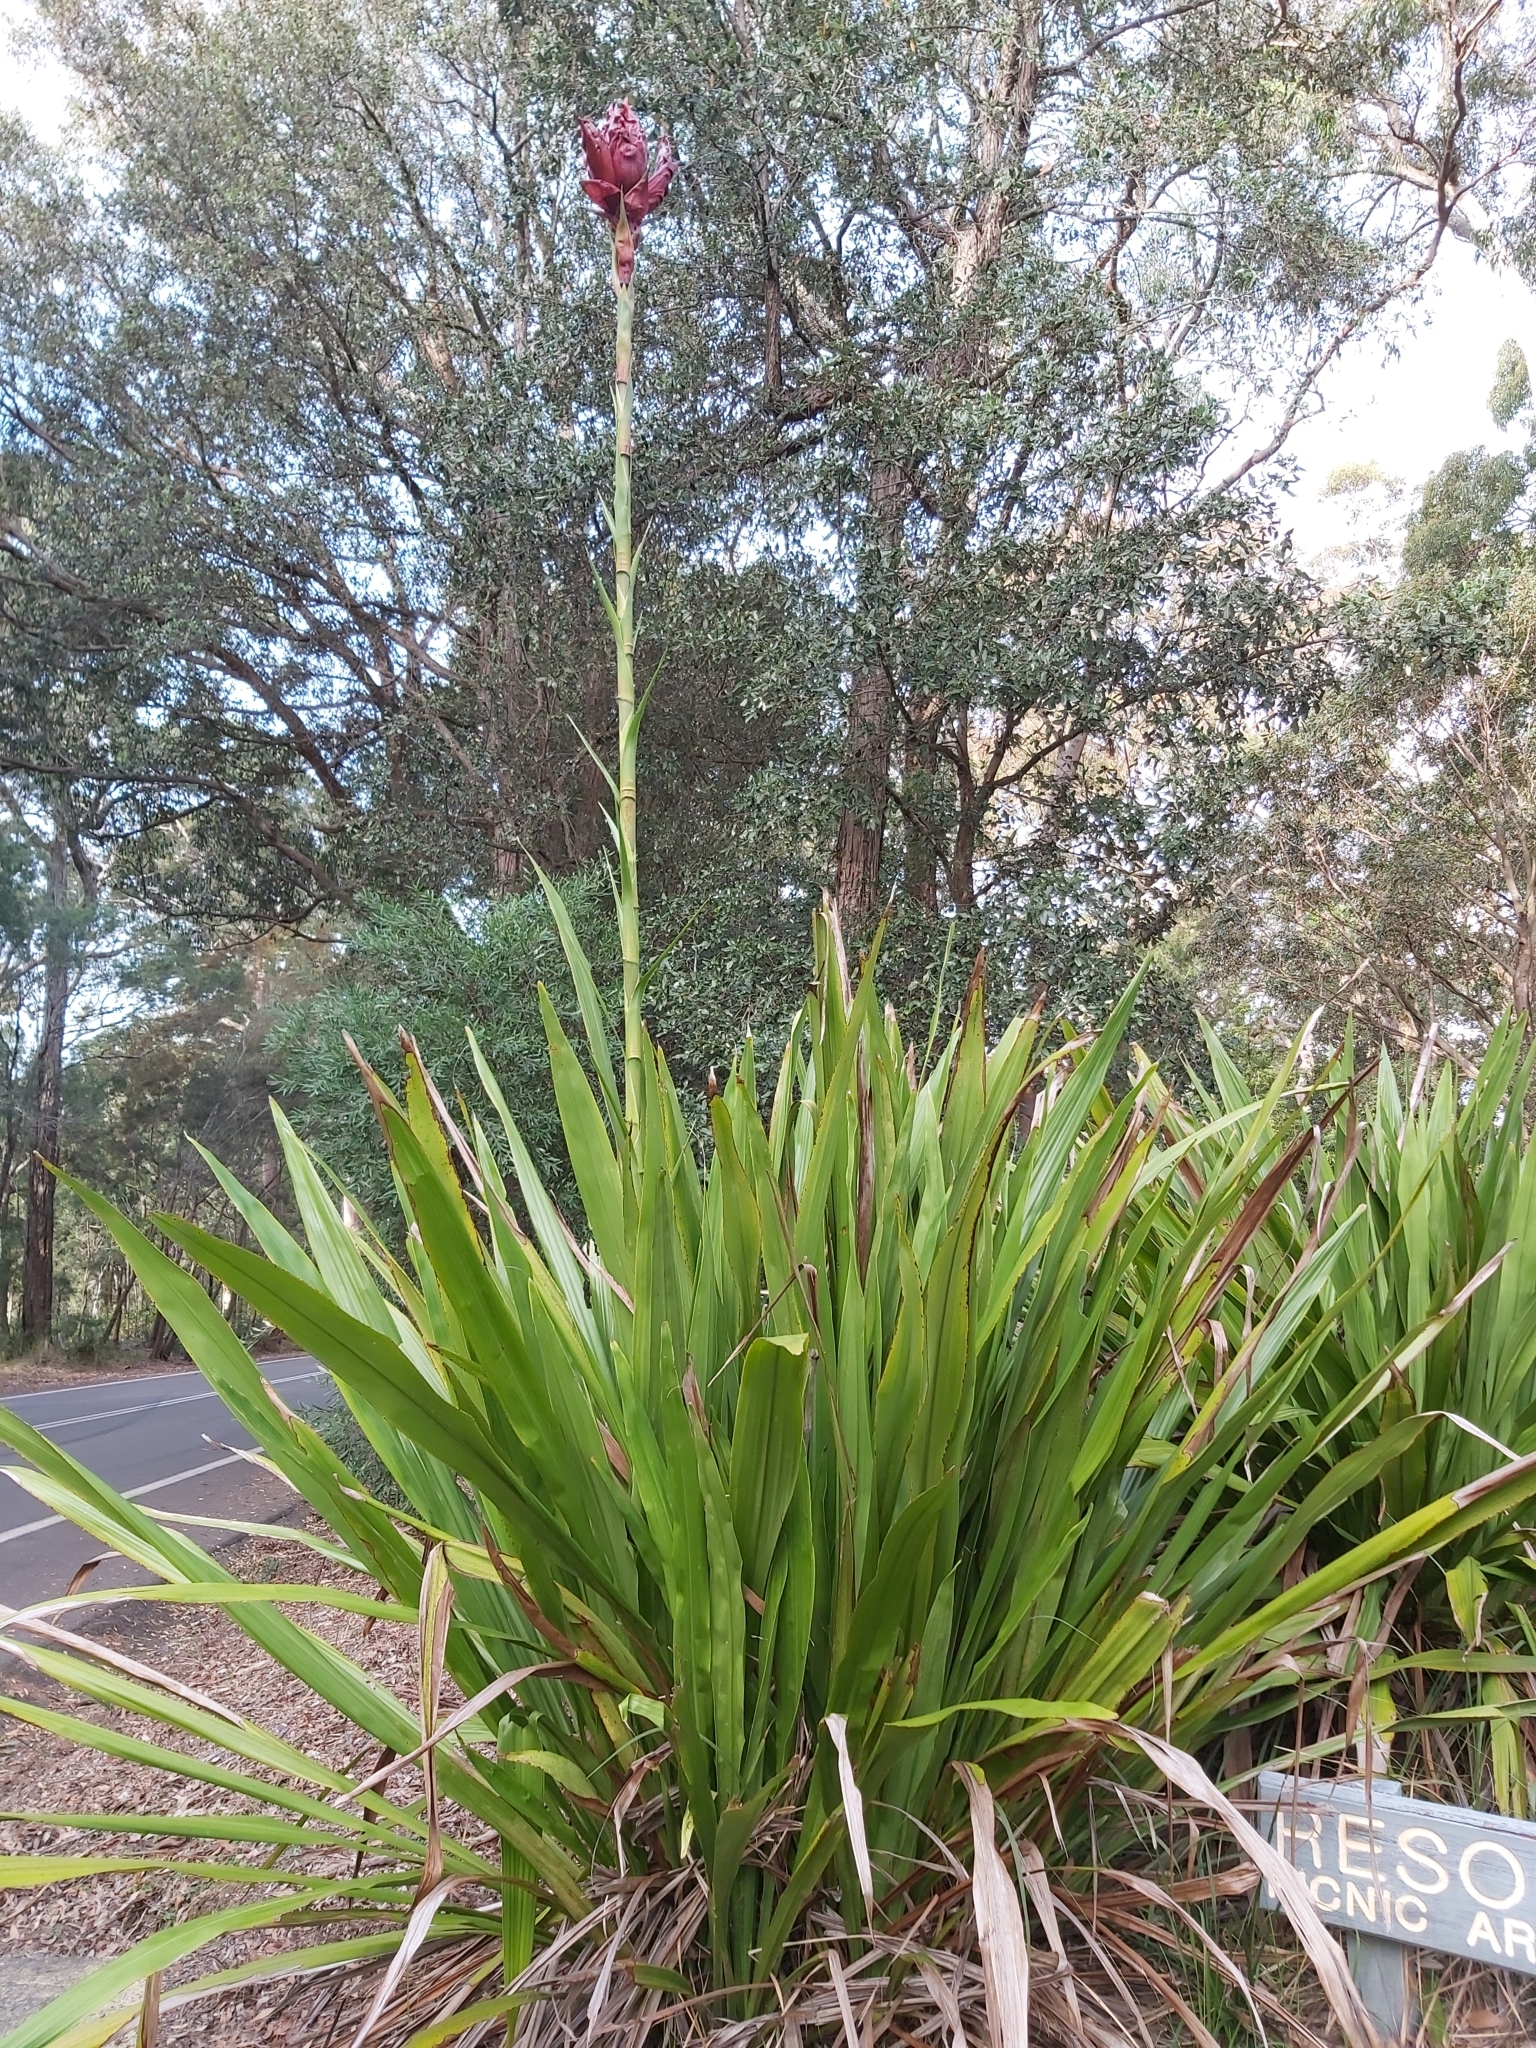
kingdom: Plantae
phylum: Tracheophyta
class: Liliopsida
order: Asparagales
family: Doryanthaceae
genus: Doryanthes
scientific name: Doryanthes excelsa
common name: Giant-lily
